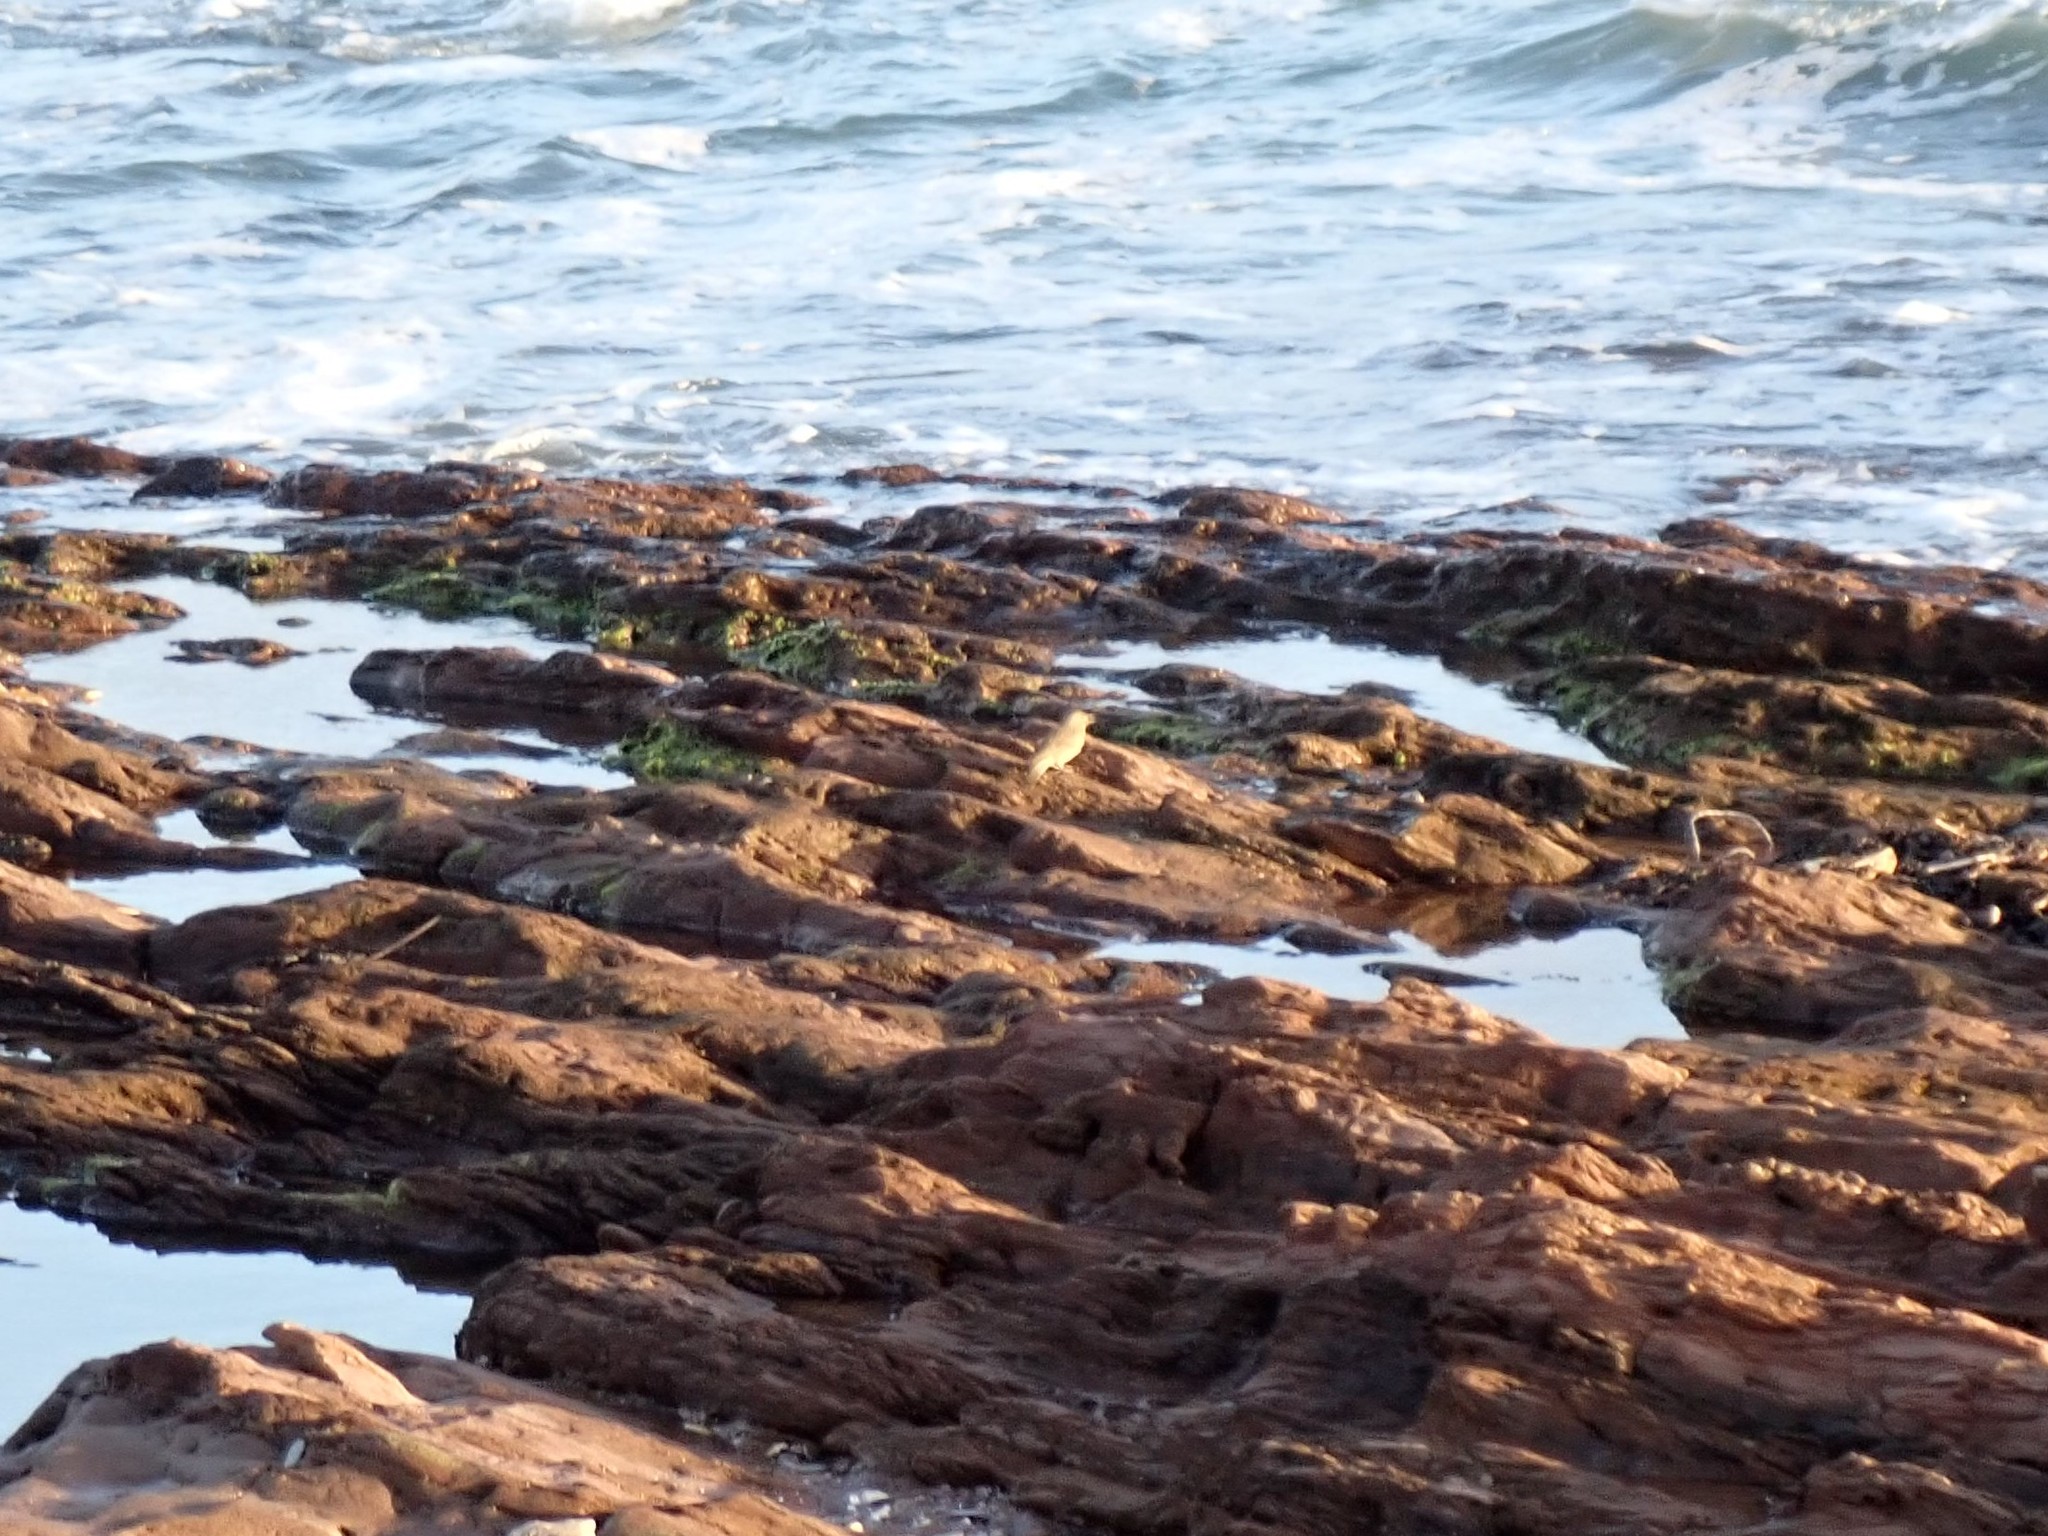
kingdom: Animalia
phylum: Chordata
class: Aves
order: Passeriformes
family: Motacillidae
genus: Anthus
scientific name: Anthus petrosus
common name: Eurasian rock pipit
